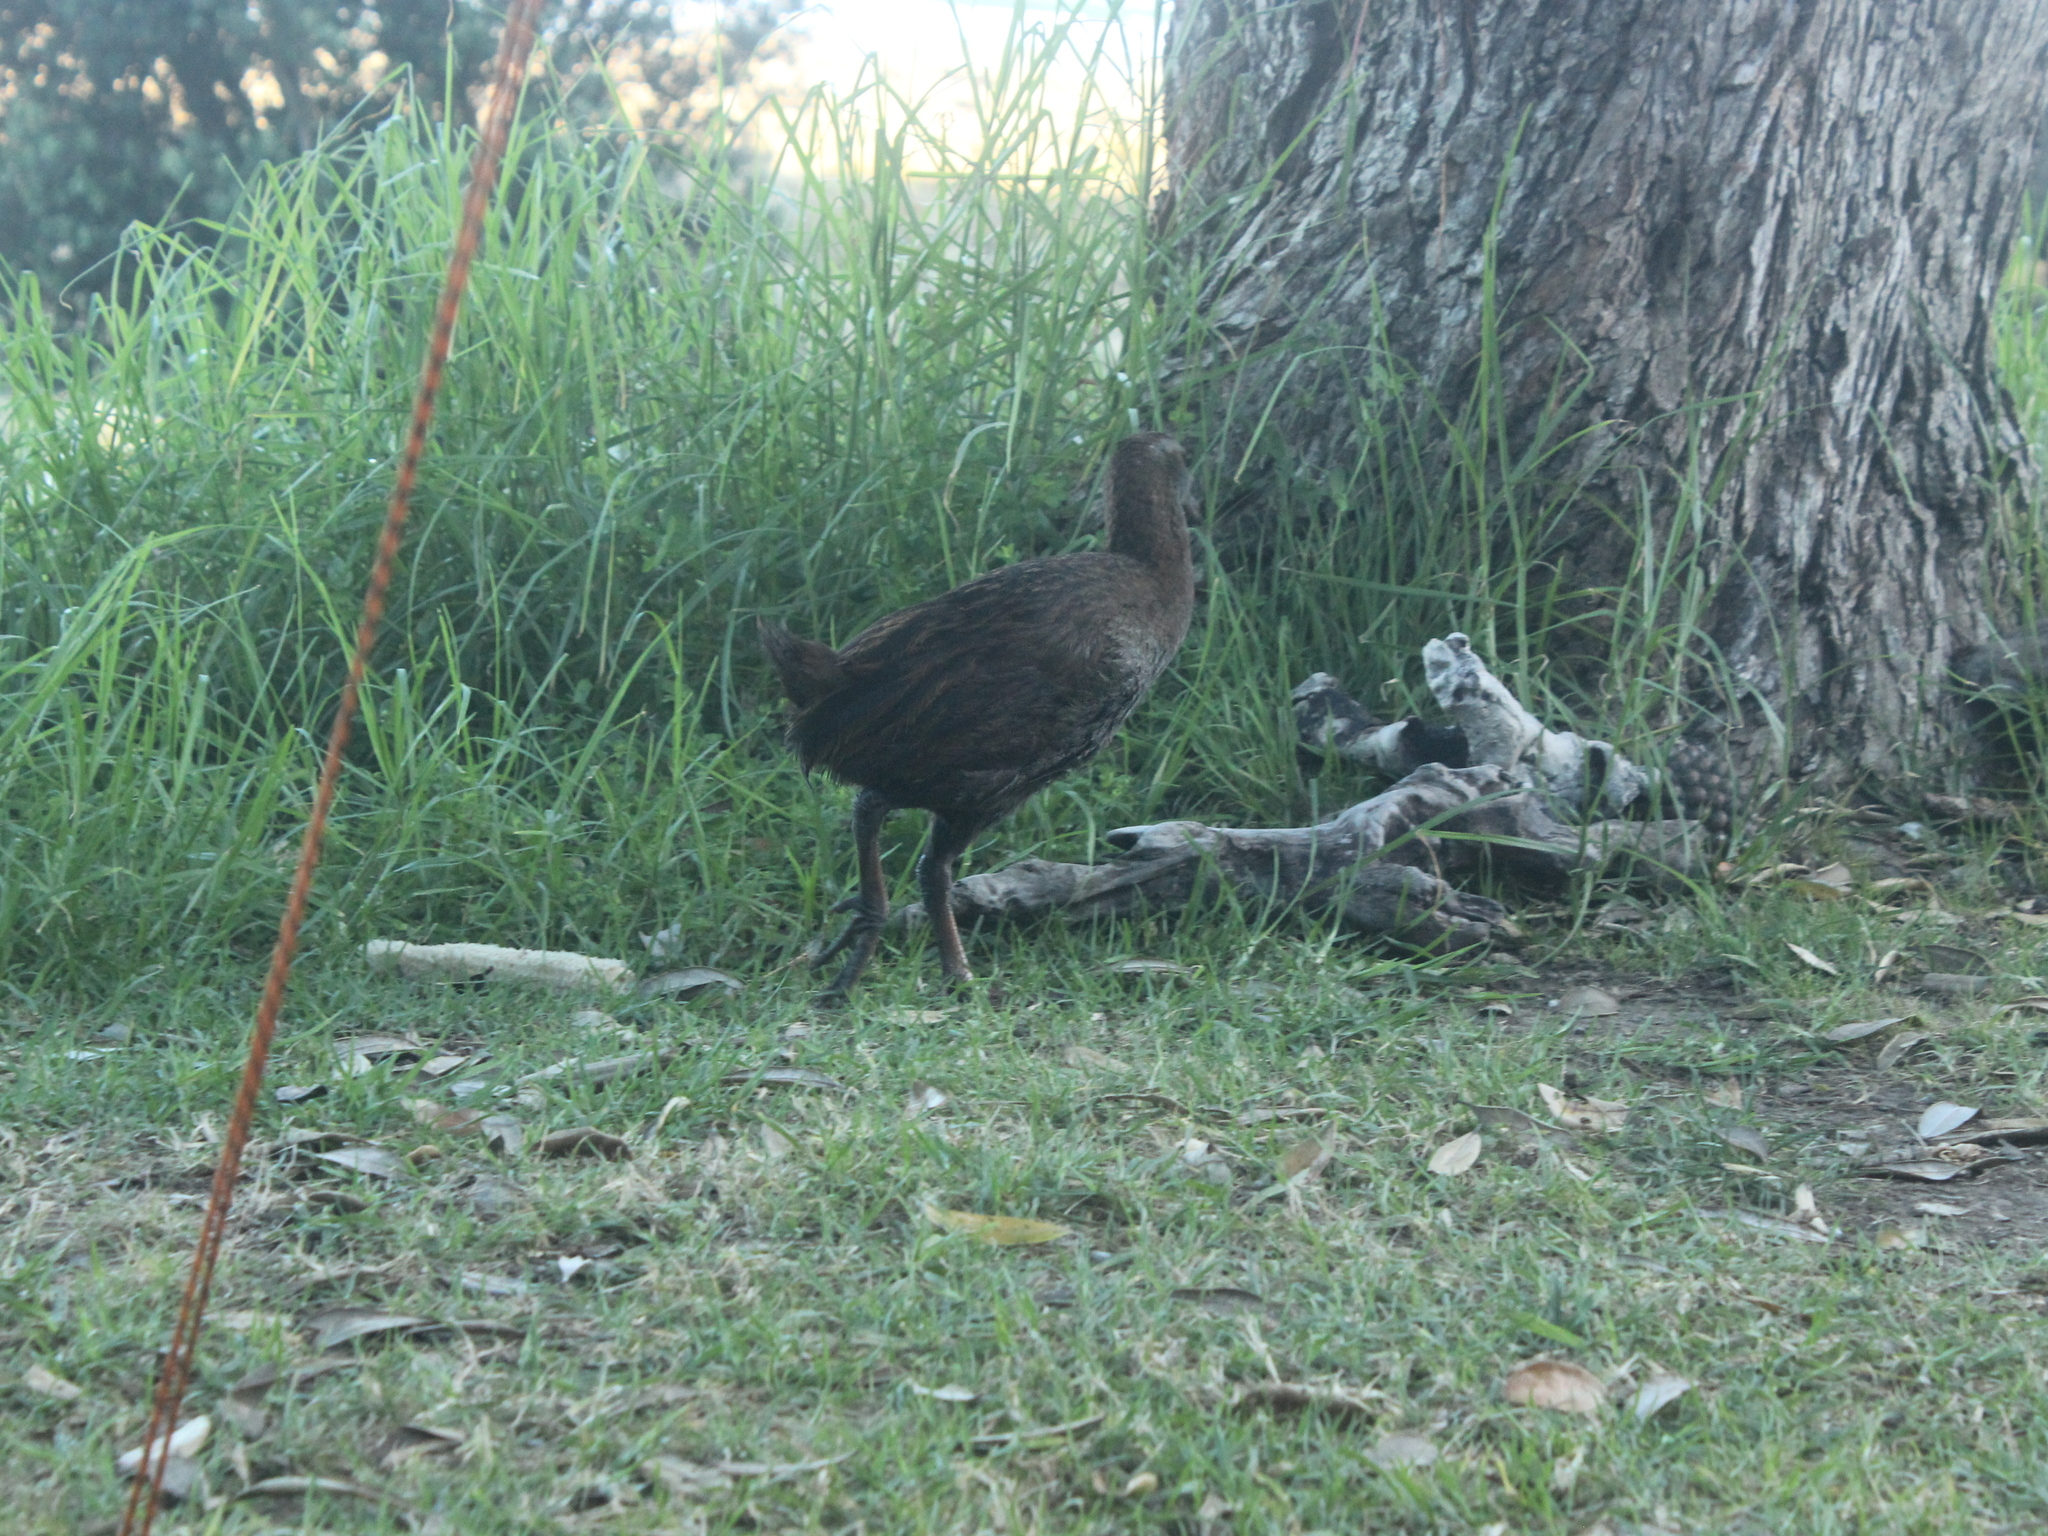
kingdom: Animalia
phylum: Chordata
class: Aves
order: Gruiformes
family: Rallidae
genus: Gallirallus
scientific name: Gallirallus australis
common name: Weka
